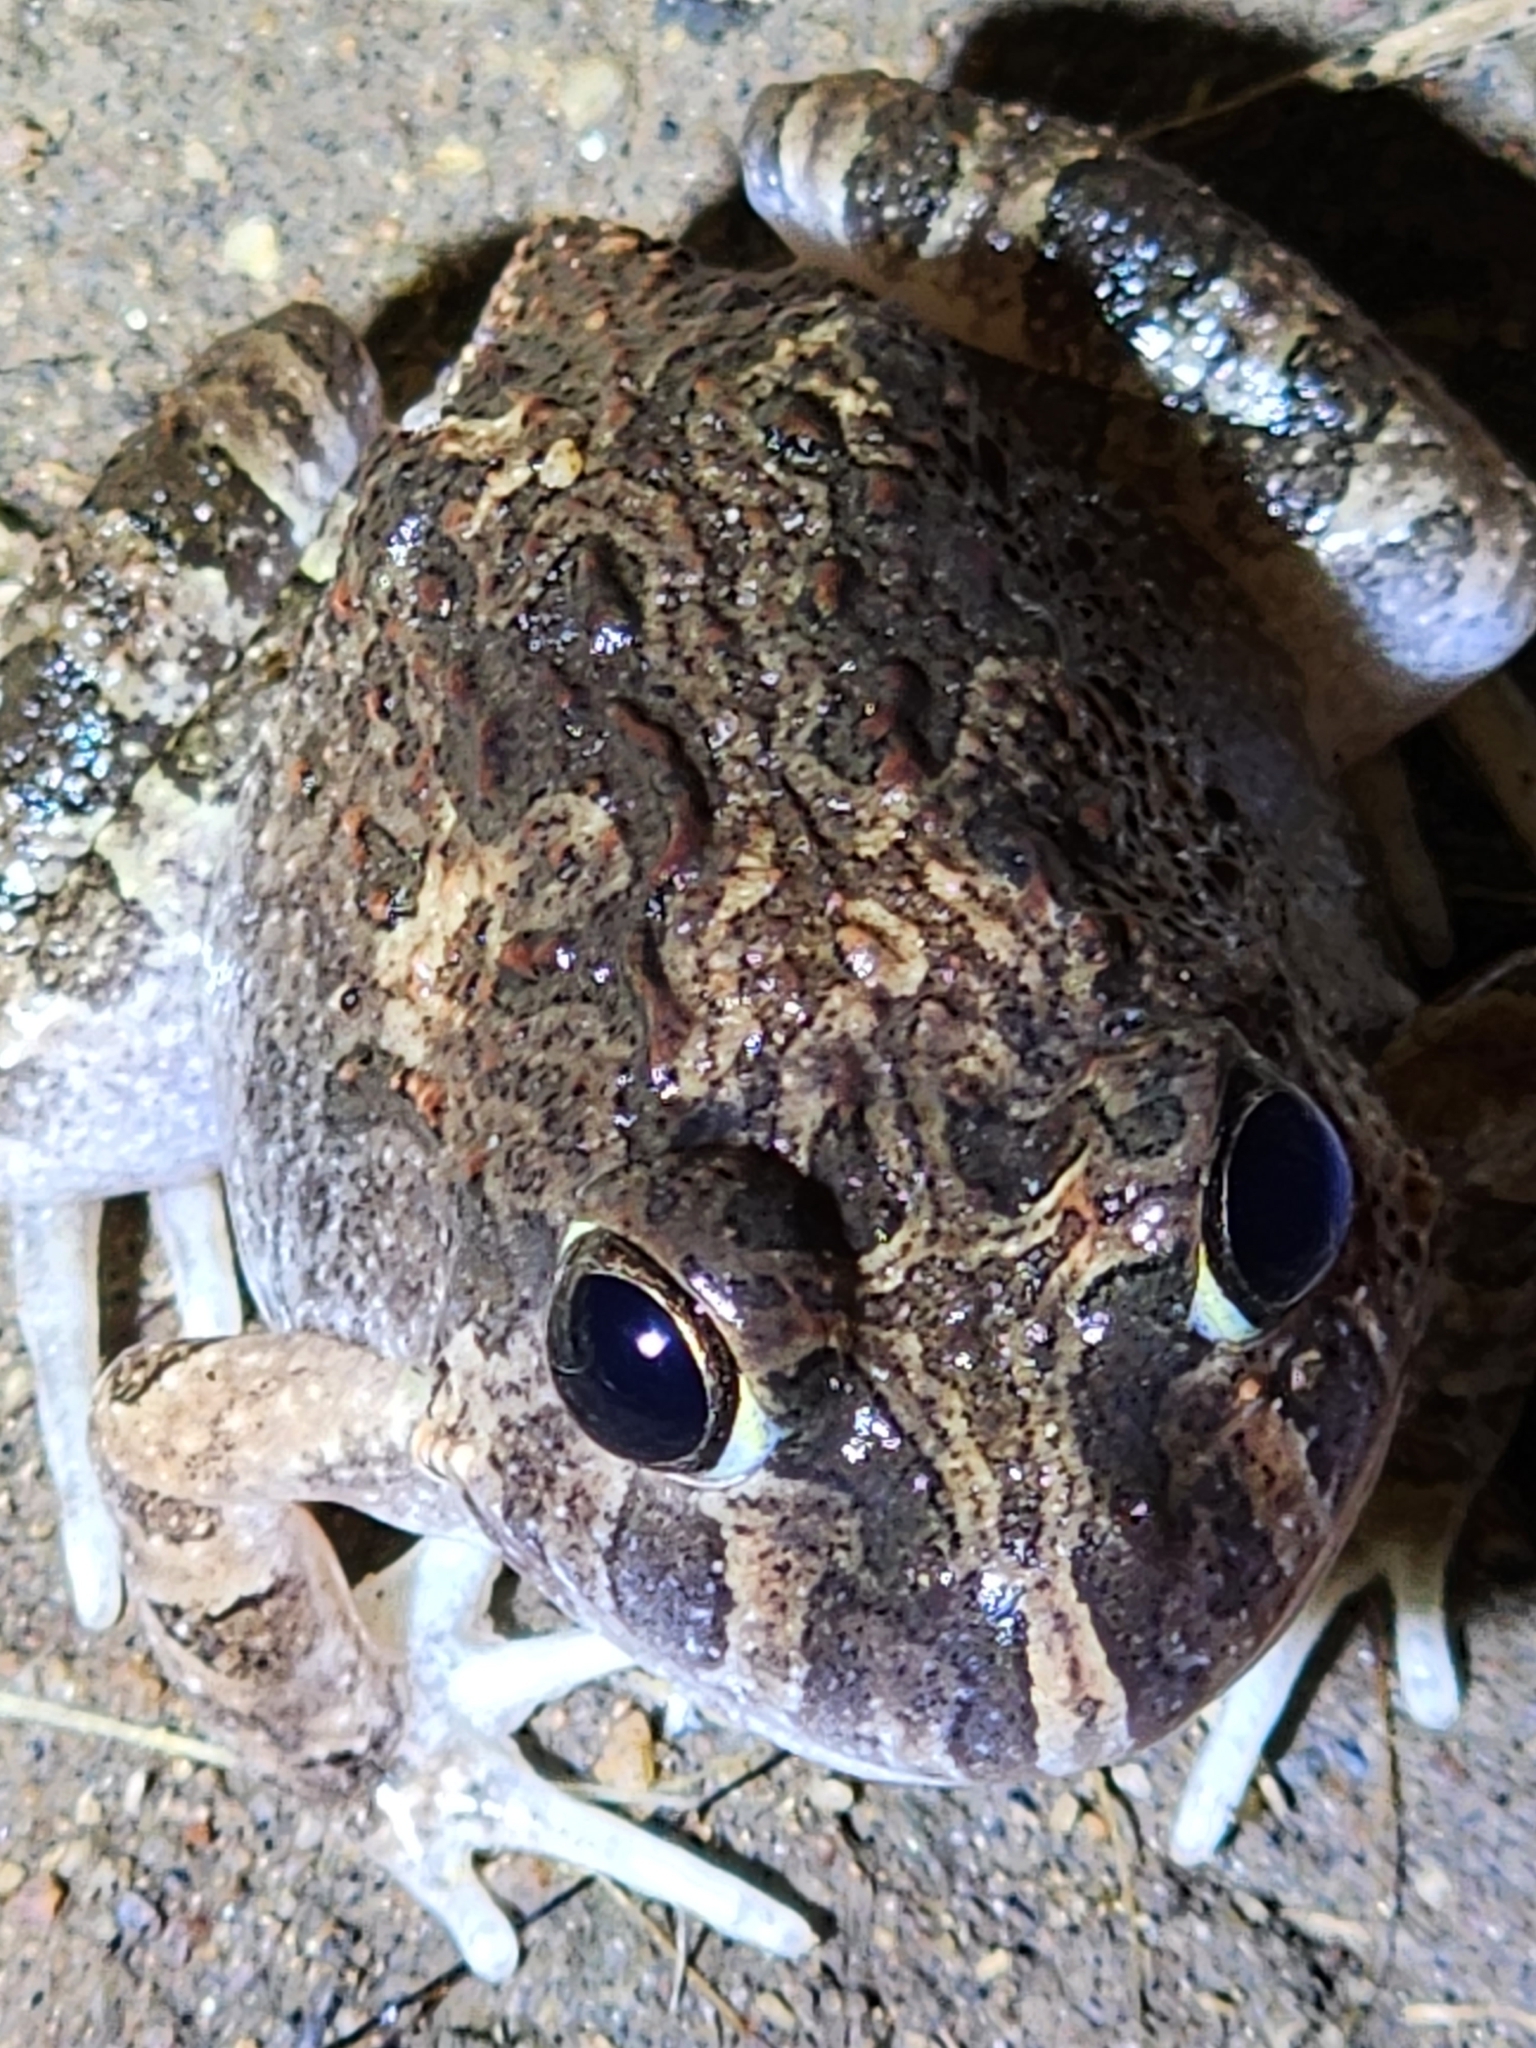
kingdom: Animalia
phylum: Chordata
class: Amphibia
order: Anura
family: Limnodynastidae
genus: Platyplectrum
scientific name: Platyplectrum ornatum
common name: Ornate burrowing frog
